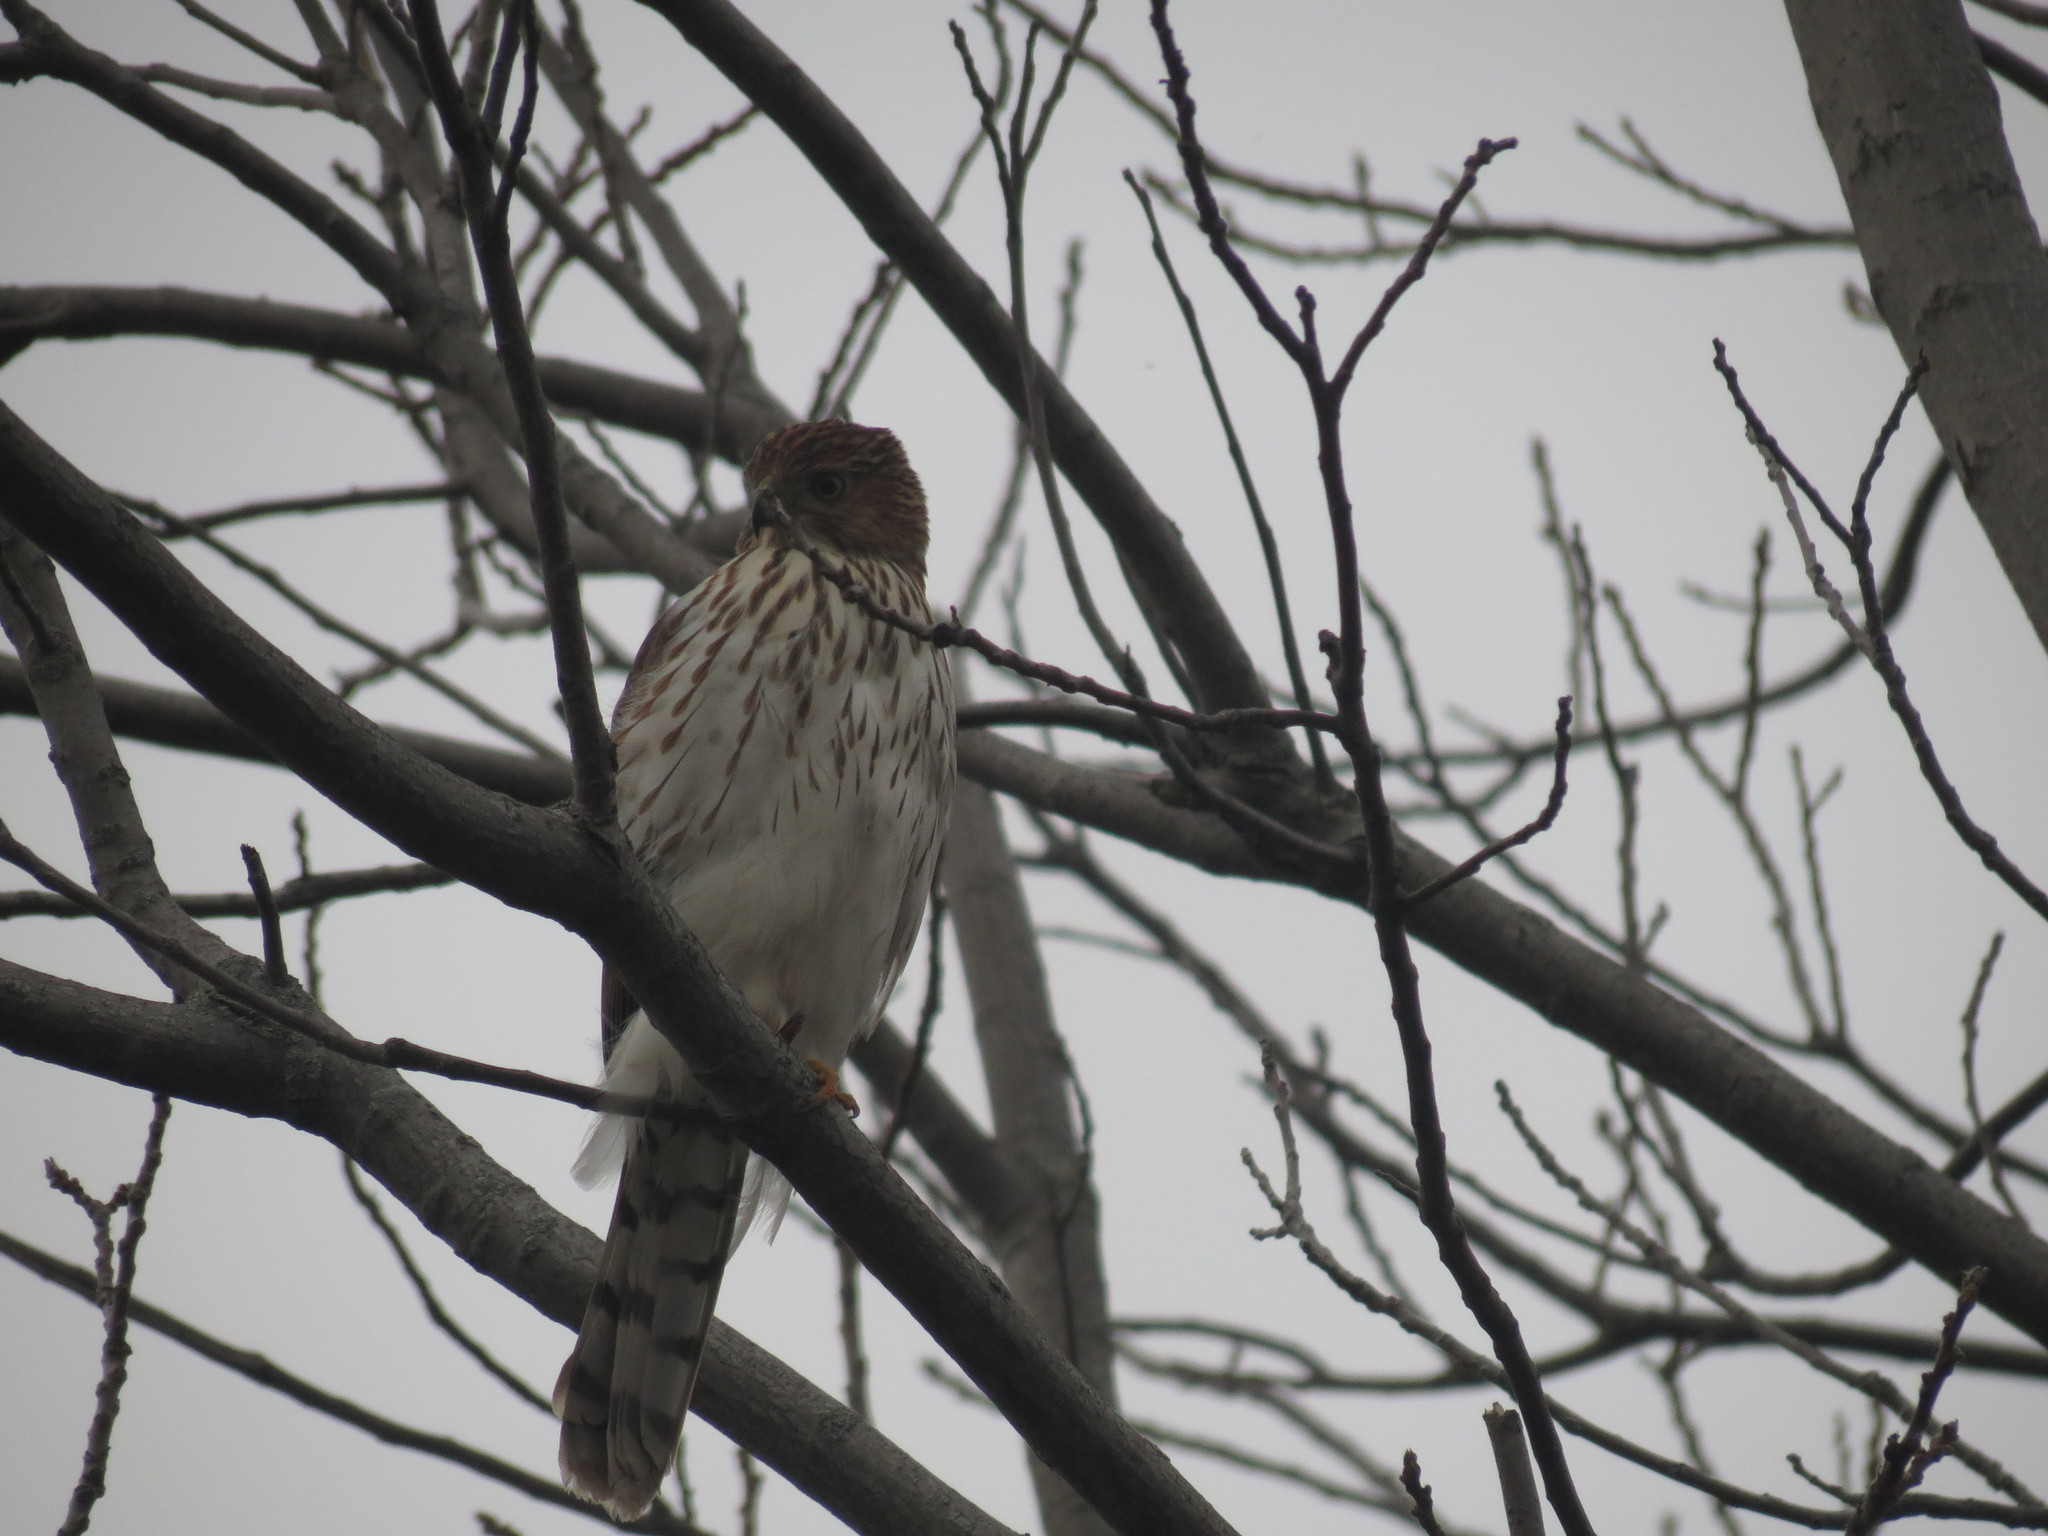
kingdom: Animalia
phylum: Chordata
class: Aves
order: Accipitriformes
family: Accipitridae
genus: Accipiter
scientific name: Accipiter cooperii
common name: Cooper's hawk
